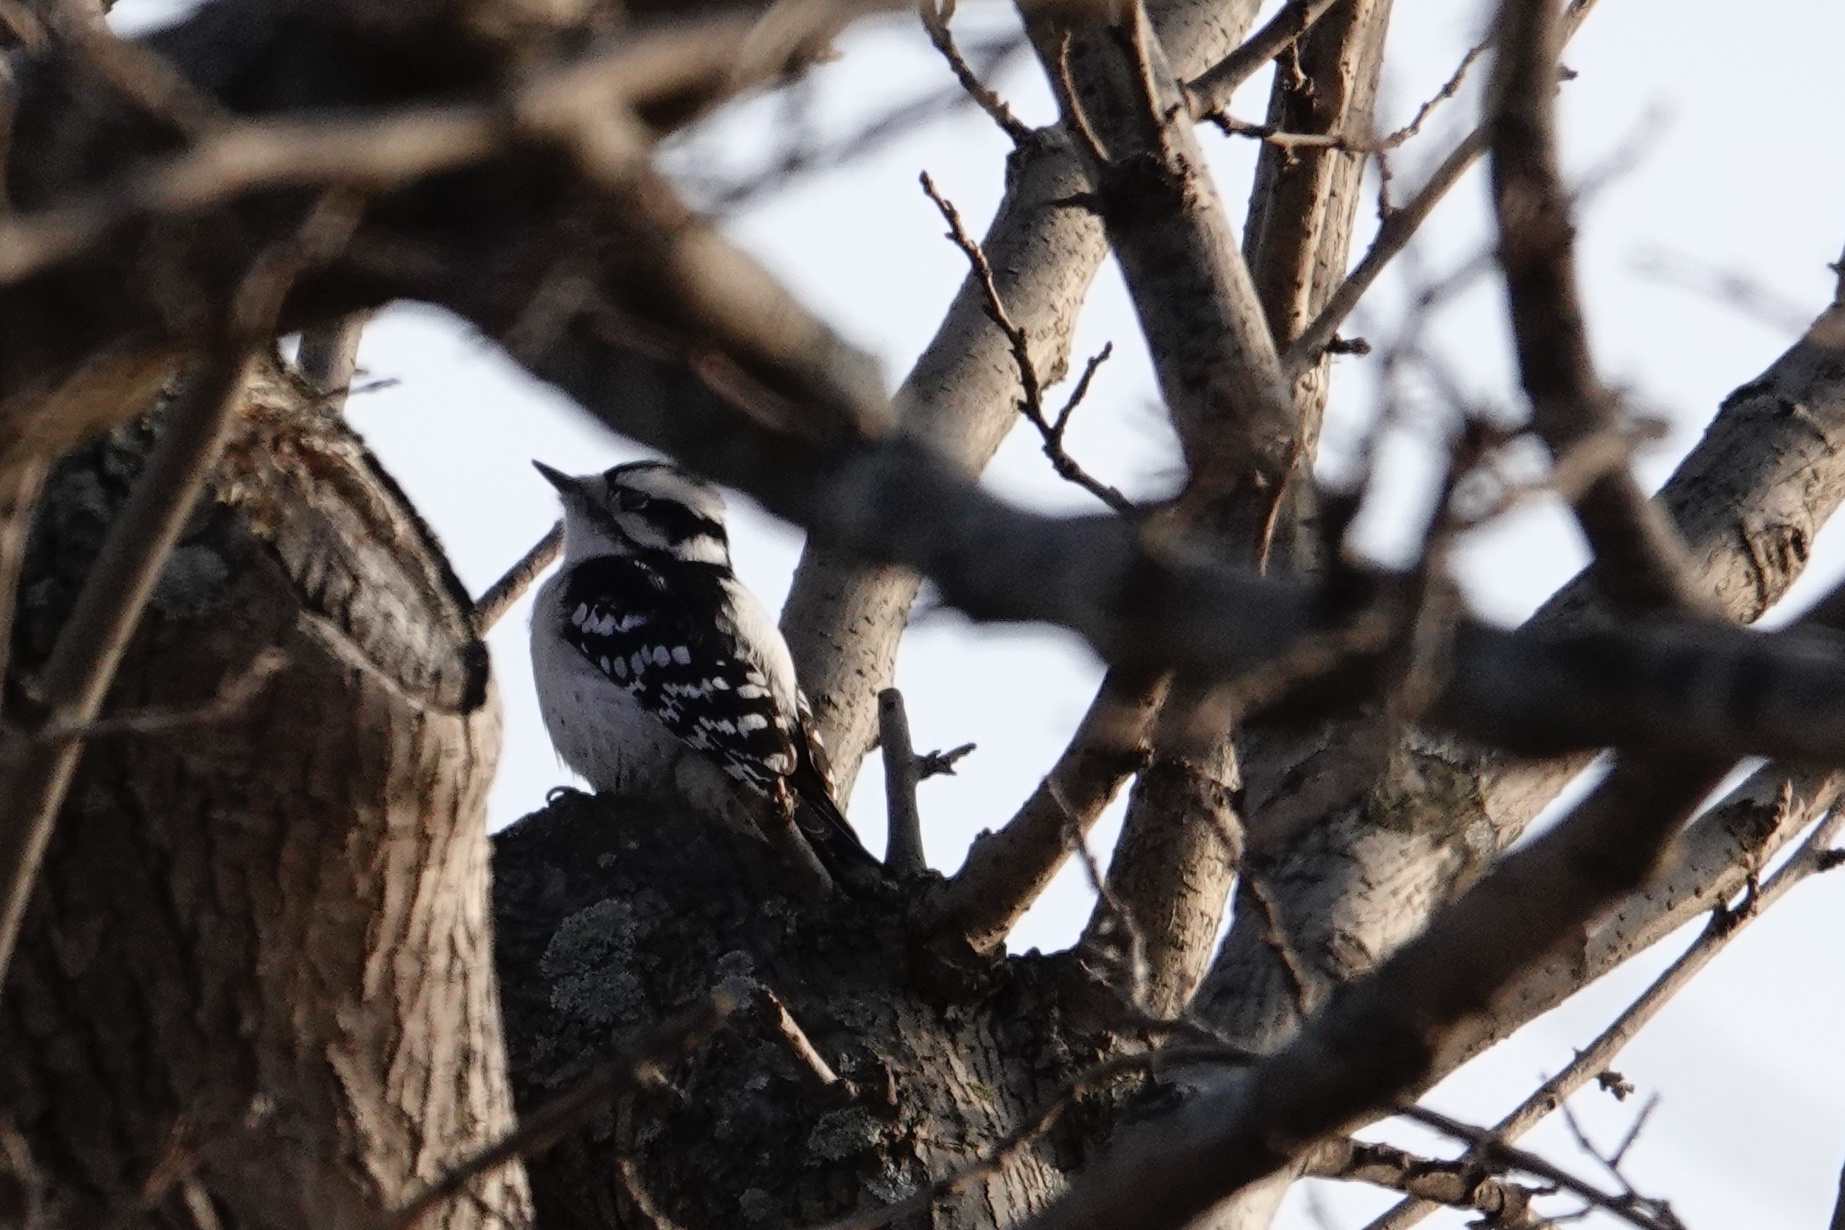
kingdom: Animalia
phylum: Chordata
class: Aves
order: Piciformes
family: Picidae
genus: Dryobates
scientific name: Dryobates pubescens
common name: Downy woodpecker
